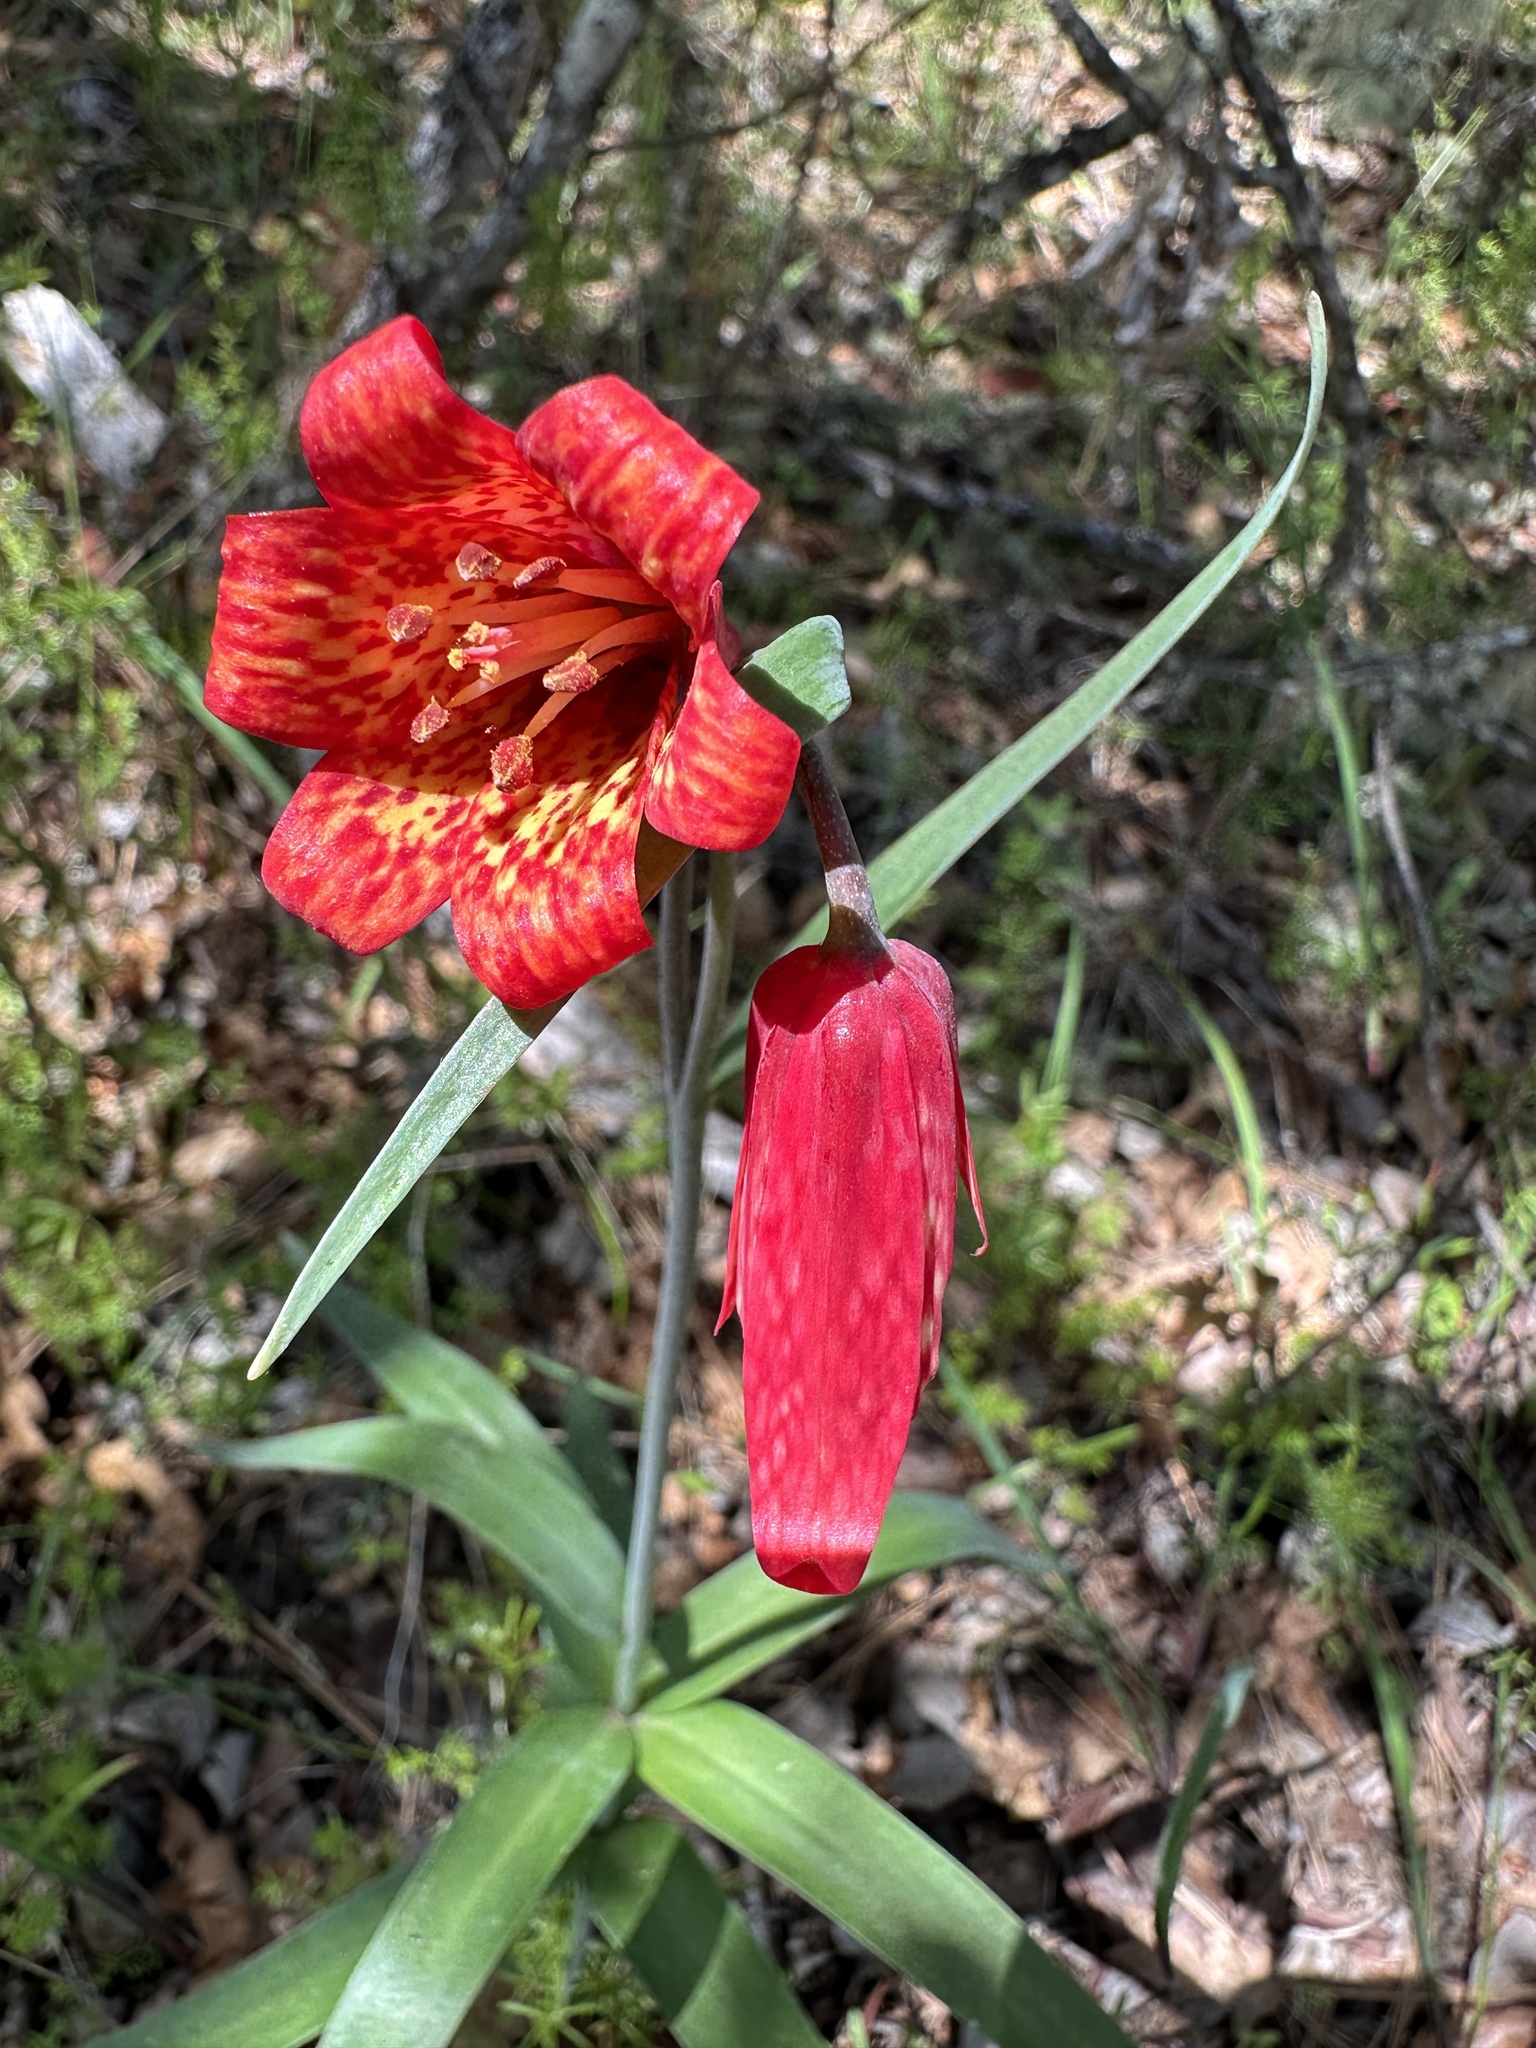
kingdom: Plantae
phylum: Tracheophyta
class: Liliopsida
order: Liliales
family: Liliaceae
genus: Fritillaria
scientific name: Fritillaria recurva
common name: Scarlet fritillary
